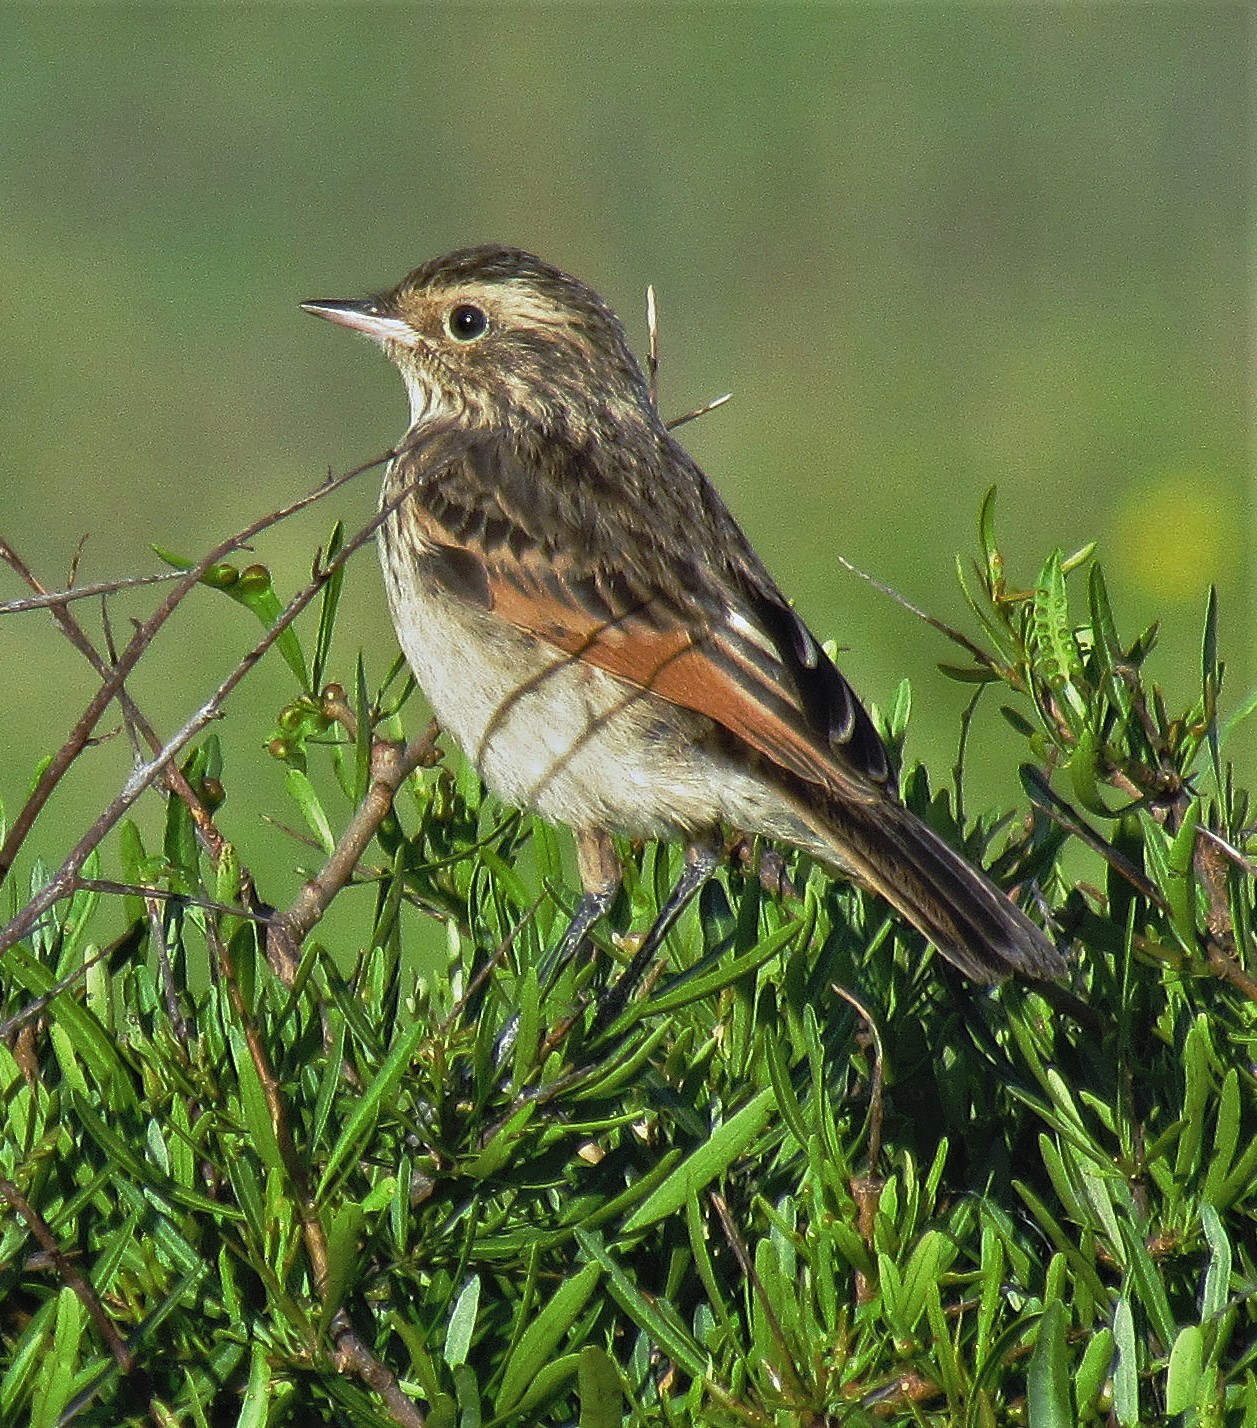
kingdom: Animalia
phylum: Chordata
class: Aves
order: Passeriformes
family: Tyrannidae
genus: Hymenops
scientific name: Hymenops perspicillatus
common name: Spectacled tyrant
